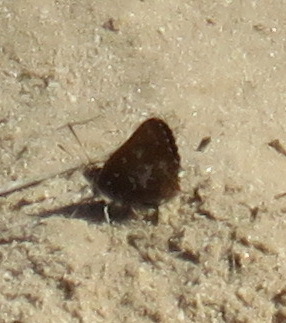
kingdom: Animalia
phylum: Arthropoda
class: Insecta
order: Lepidoptera
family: Lycaenidae
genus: Aloeides
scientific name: Aloeides thyra
